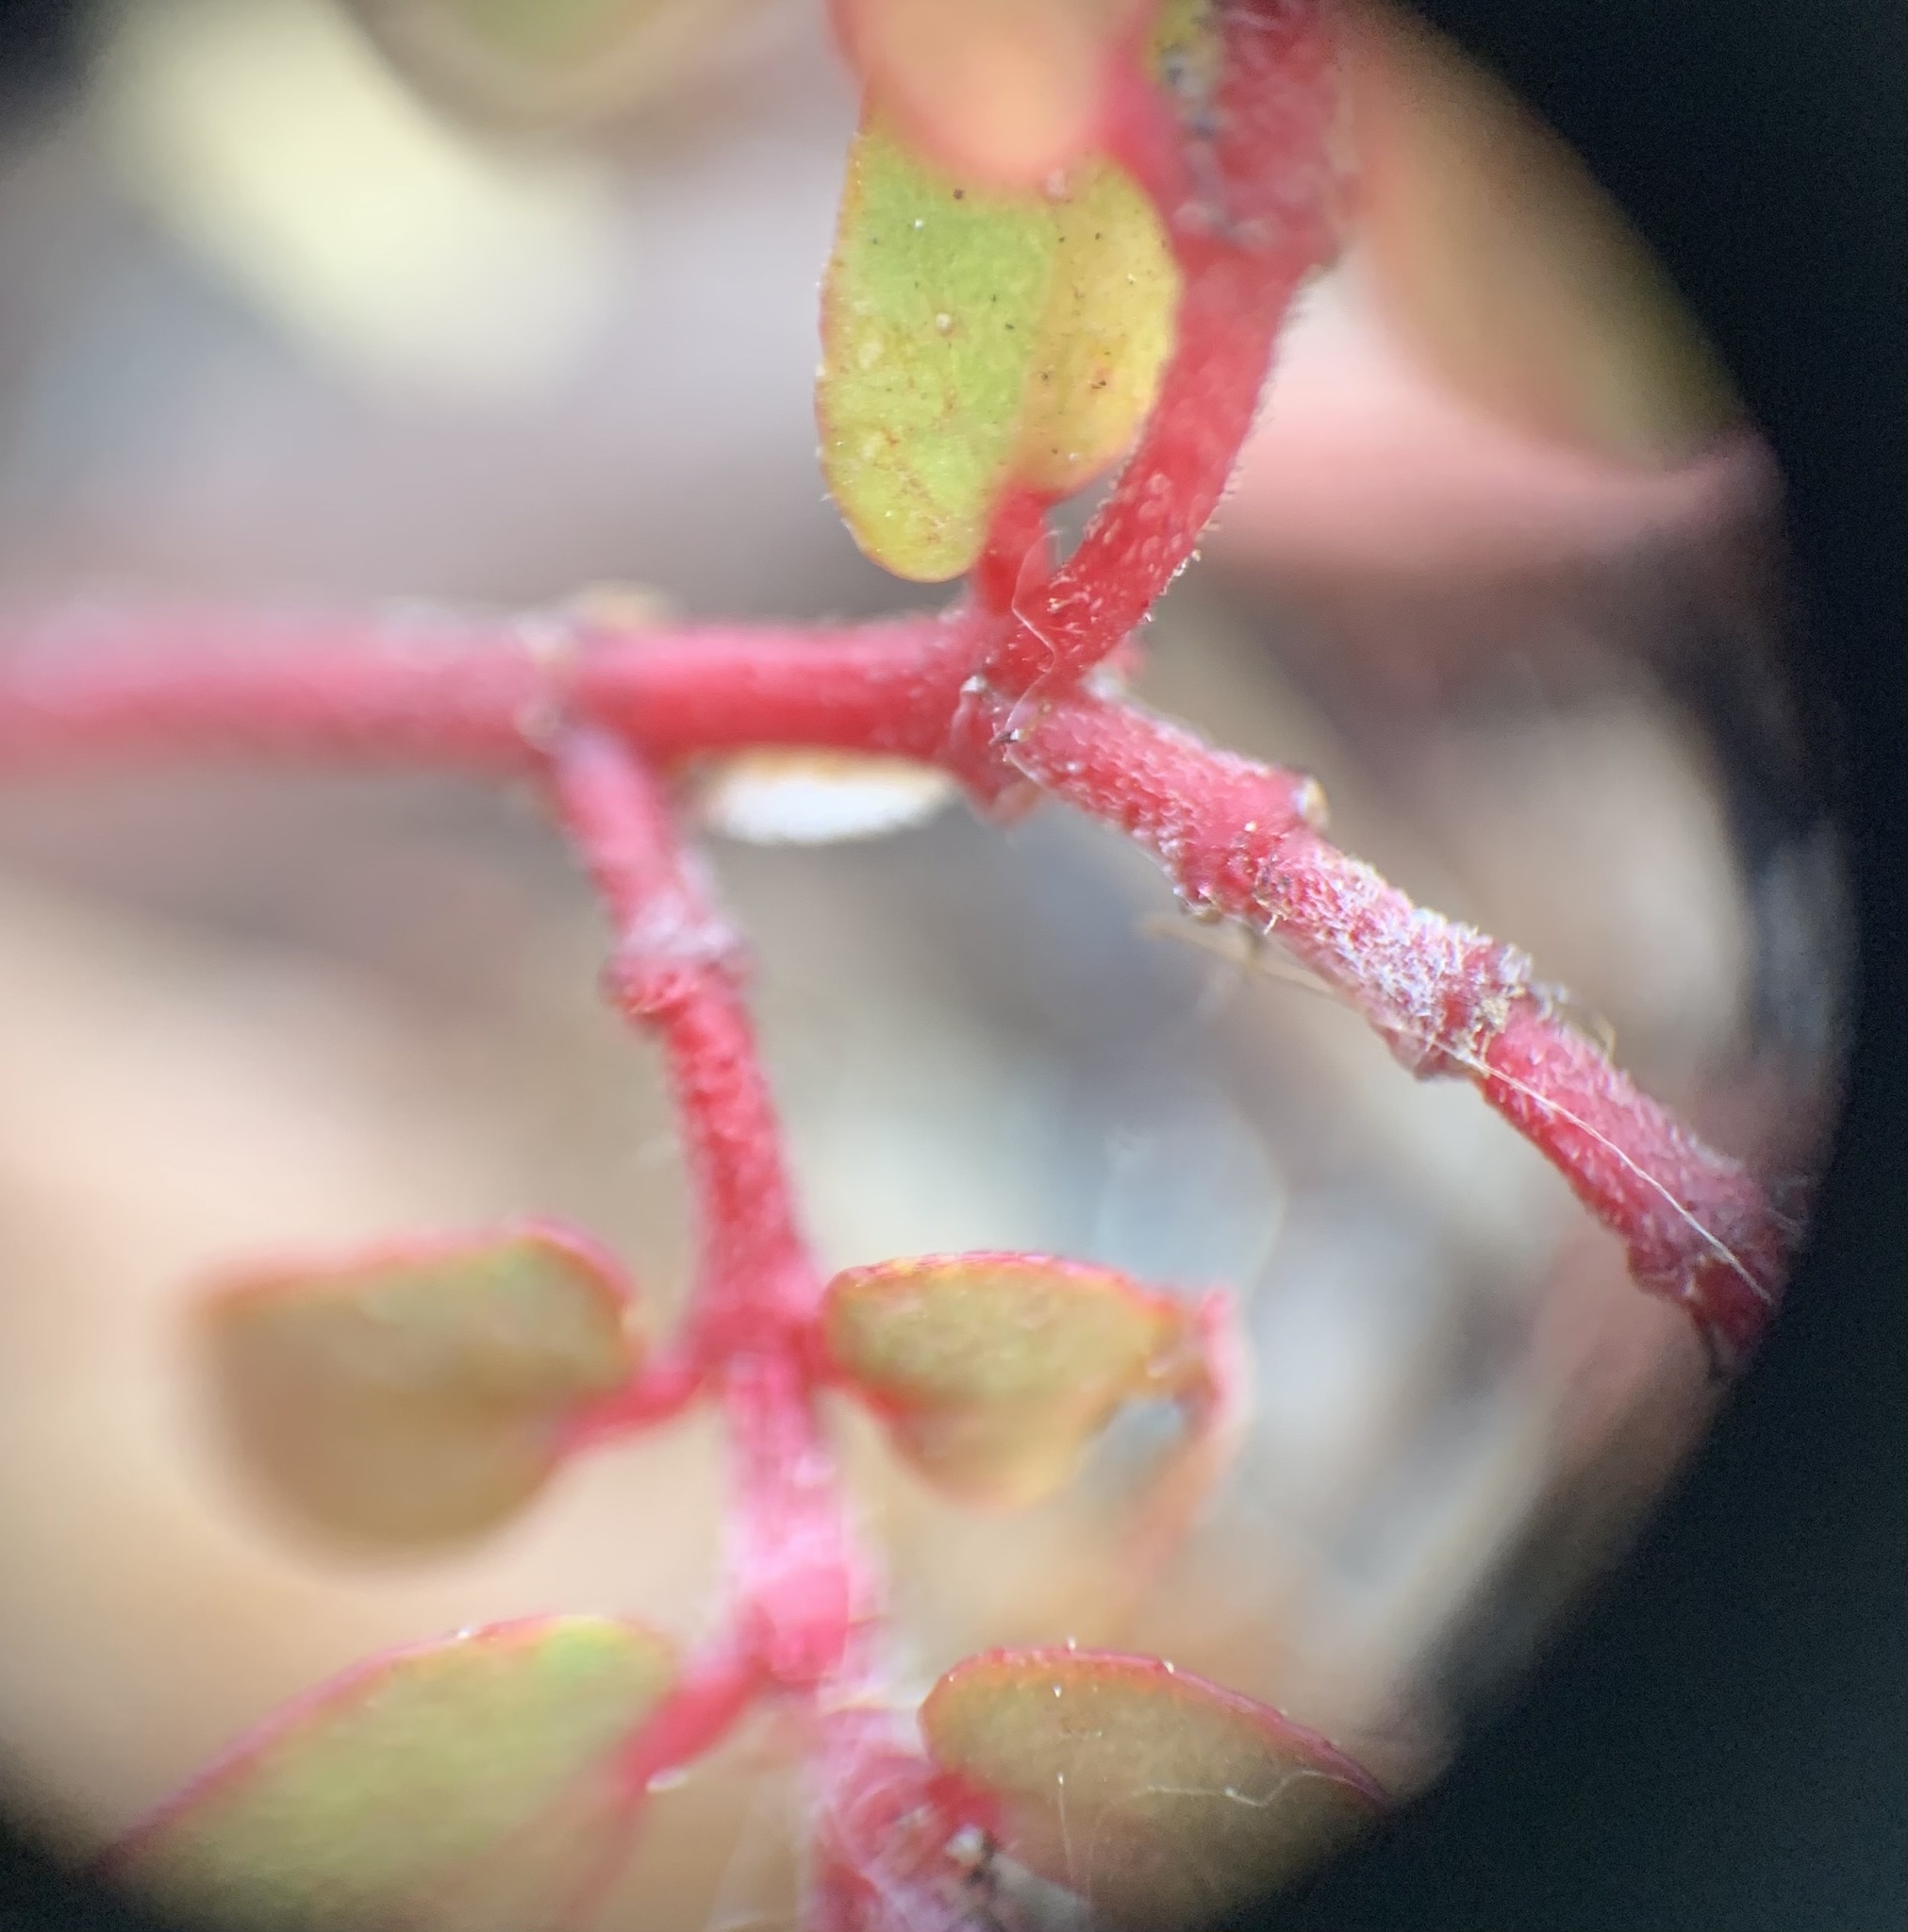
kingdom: Plantae
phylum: Tracheophyta
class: Magnoliopsida
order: Malpighiales
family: Euphorbiaceae
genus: Euphorbia
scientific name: Euphorbia maculata
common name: Spotted spurge
